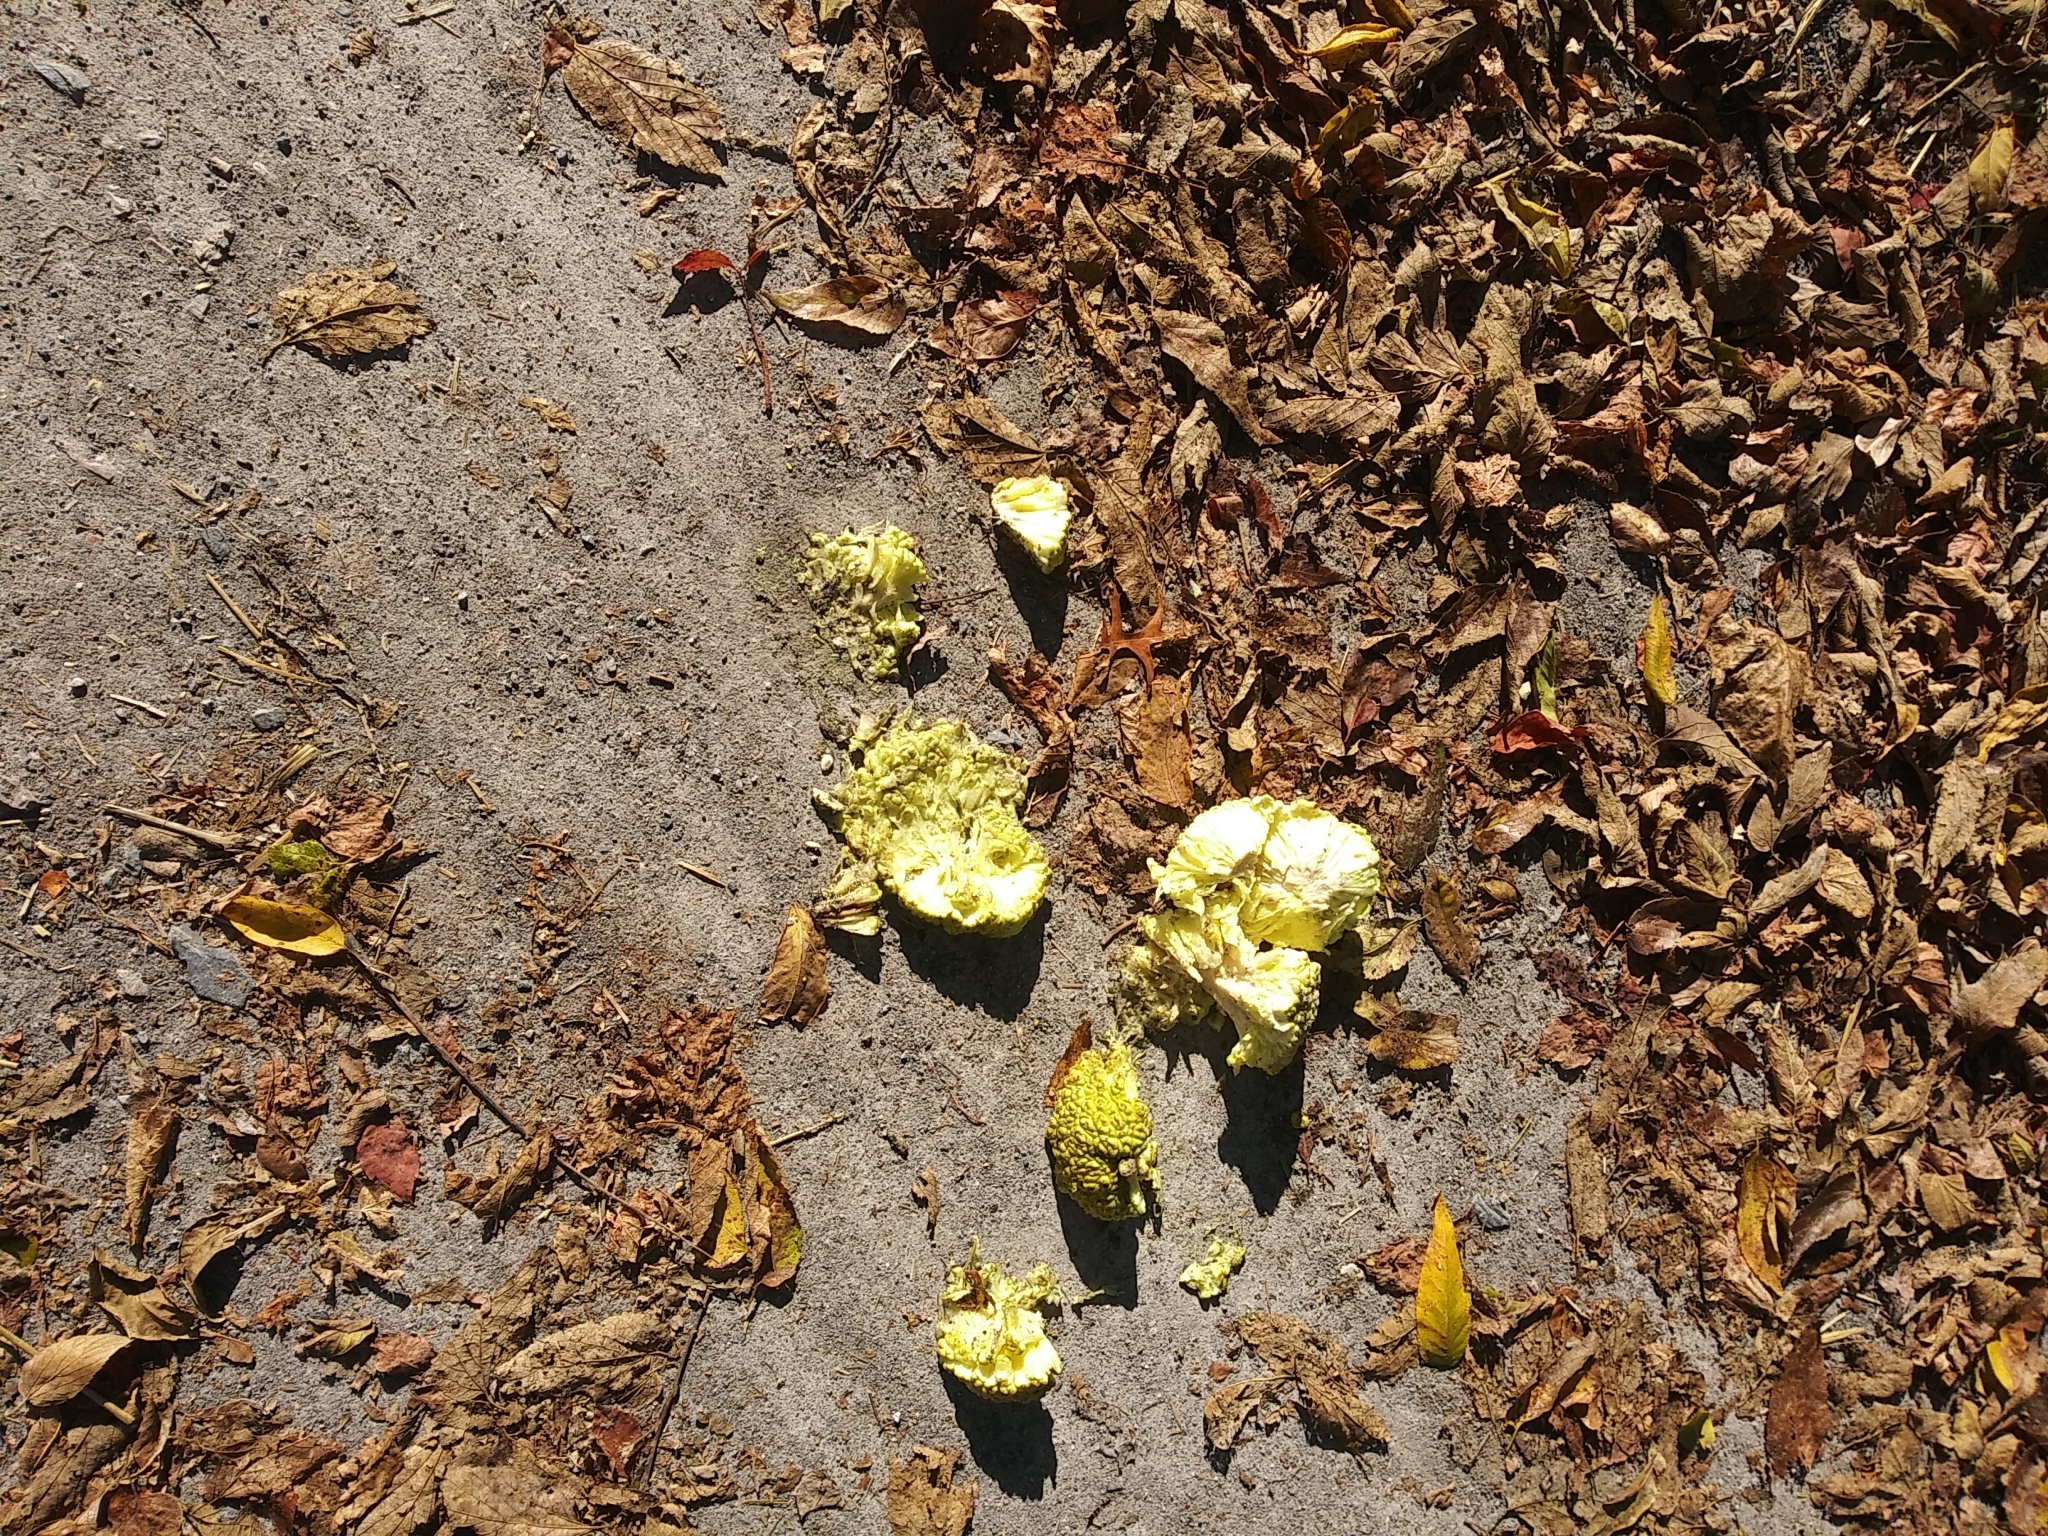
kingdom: Plantae
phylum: Tracheophyta
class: Magnoliopsida
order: Rosales
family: Moraceae
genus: Maclura
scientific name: Maclura pomifera
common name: Osage-orange
